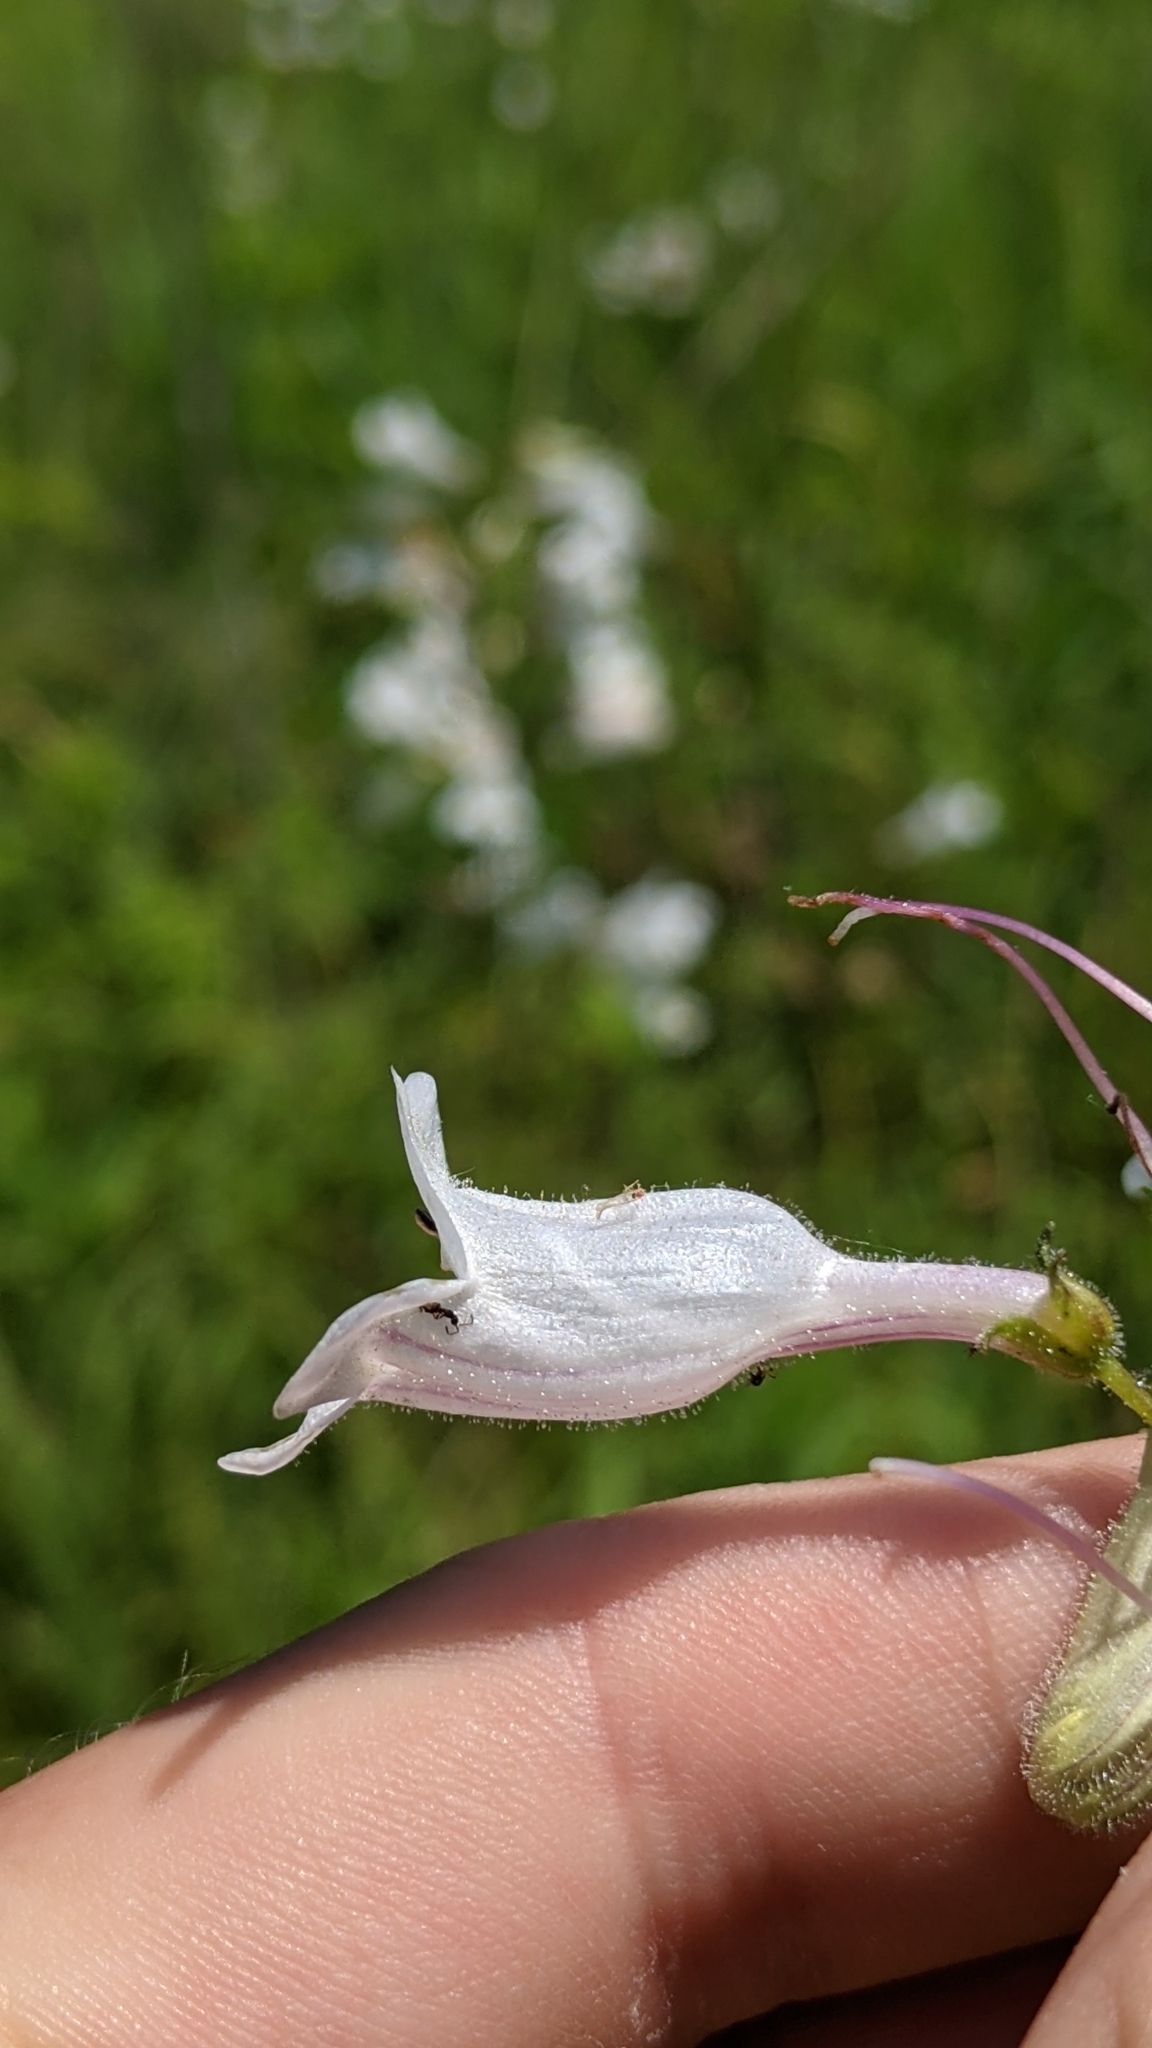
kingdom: Plantae
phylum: Tracheophyta
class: Magnoliopsida
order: Lamiales
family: Plantaginaceae
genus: Penstemon
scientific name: Penstemon digitalis
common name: Foxglove beardtongue
